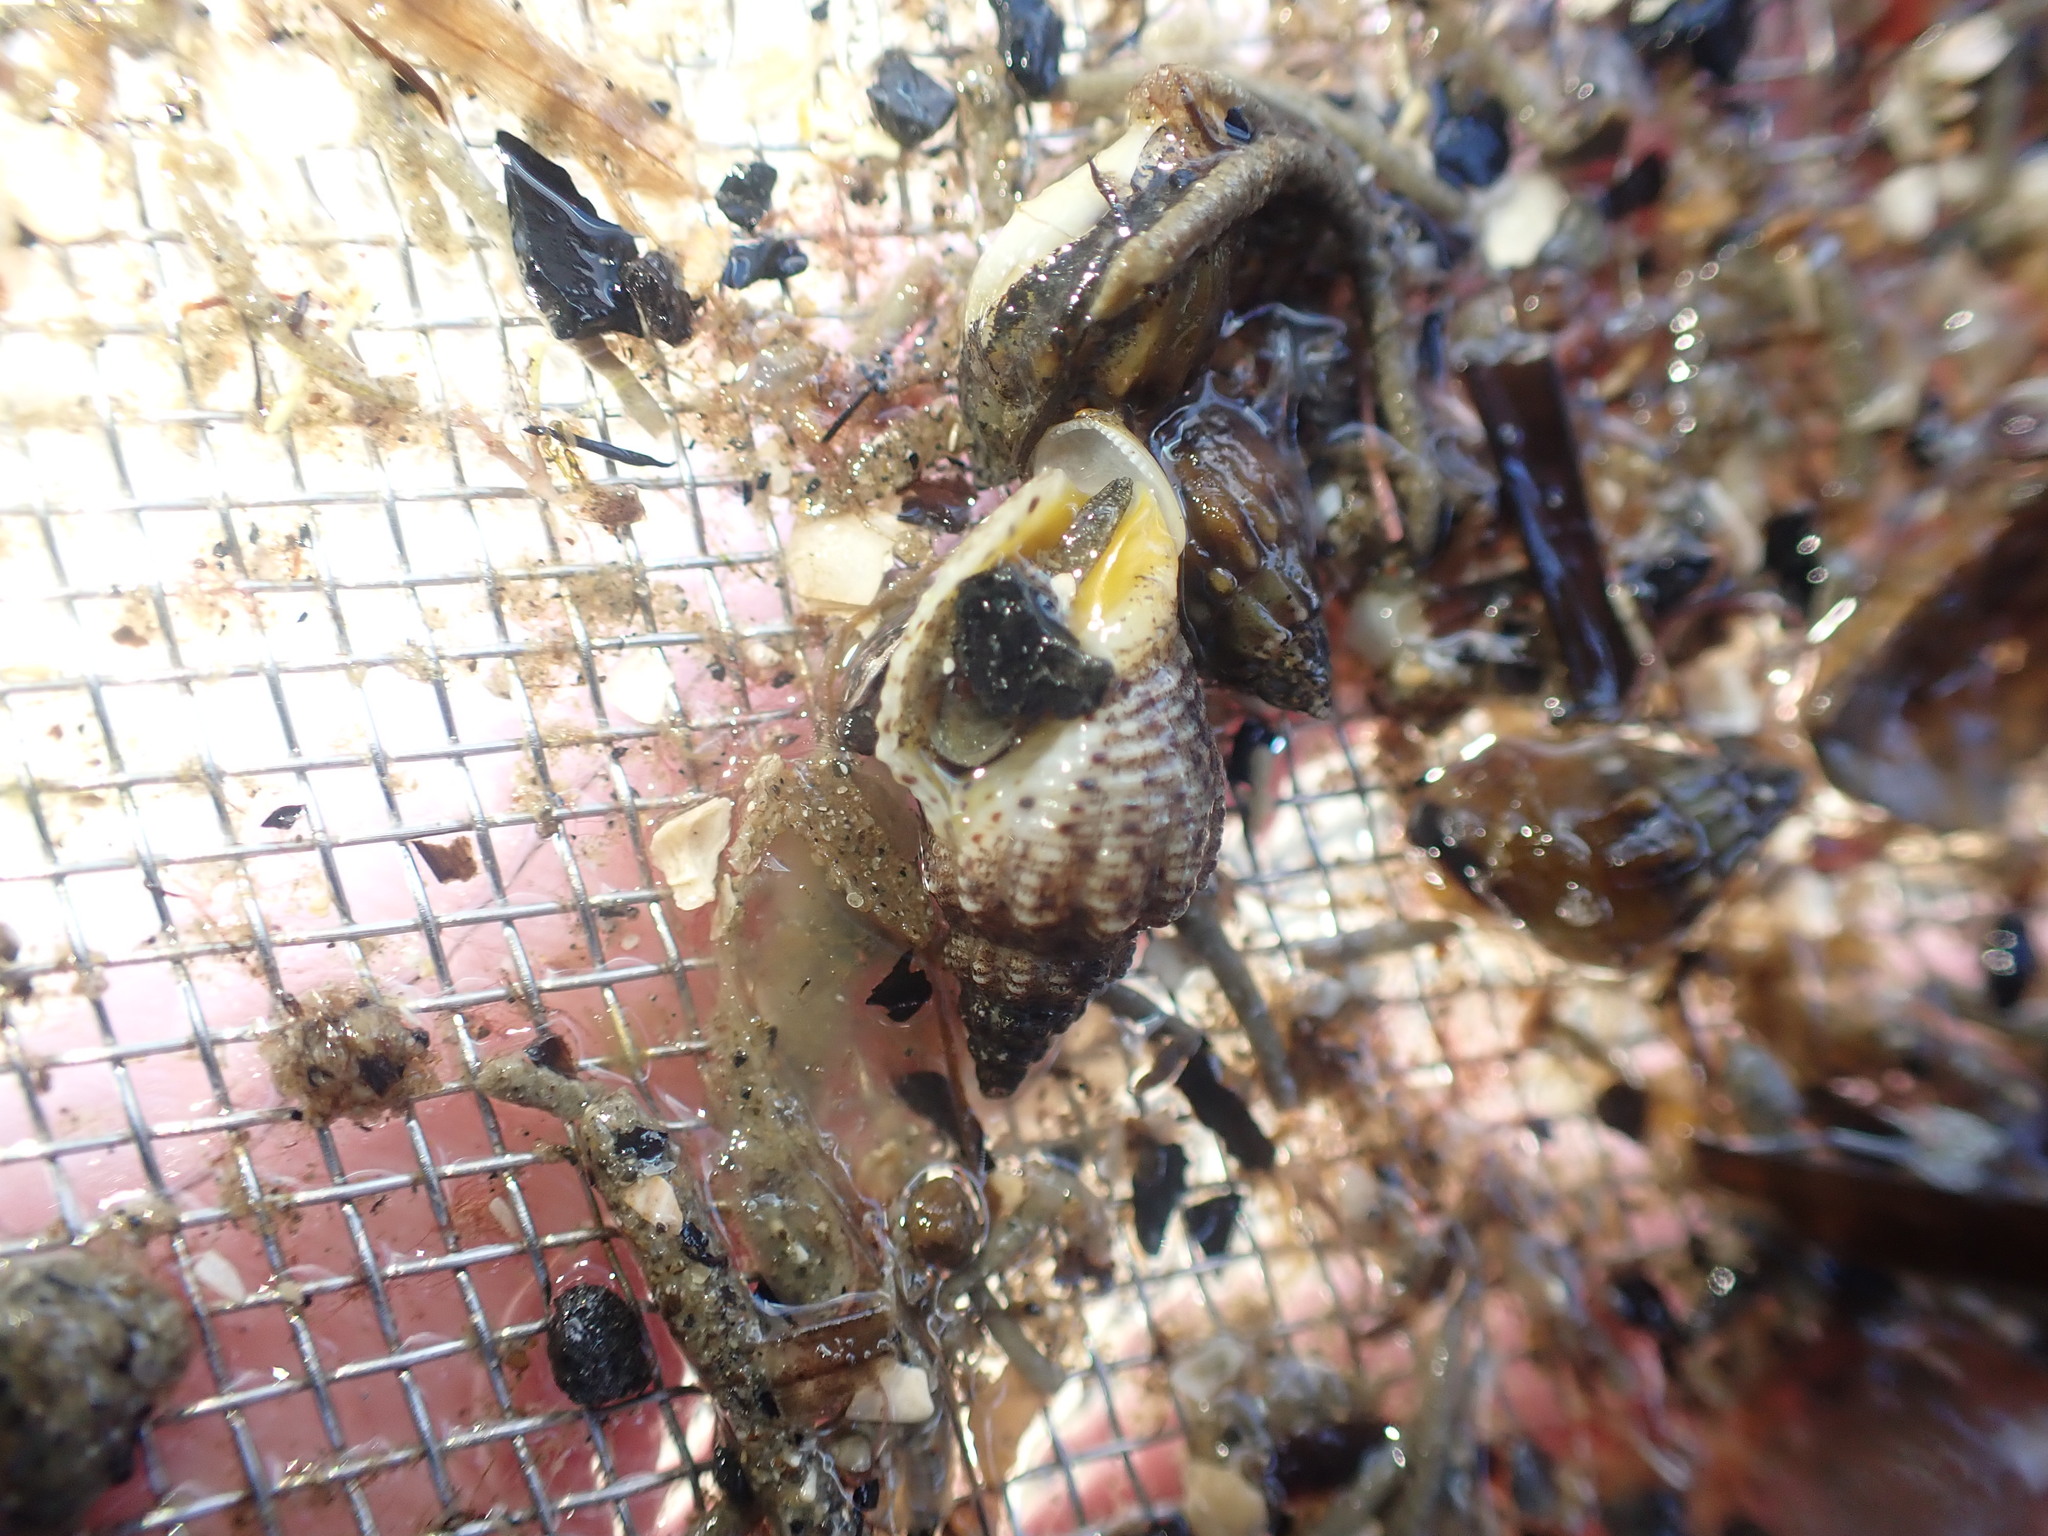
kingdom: Animalia
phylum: Mollusca
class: Gastropoda
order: Neogastropoda
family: Cominellidae
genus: Cominella
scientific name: Cominella adspersa
